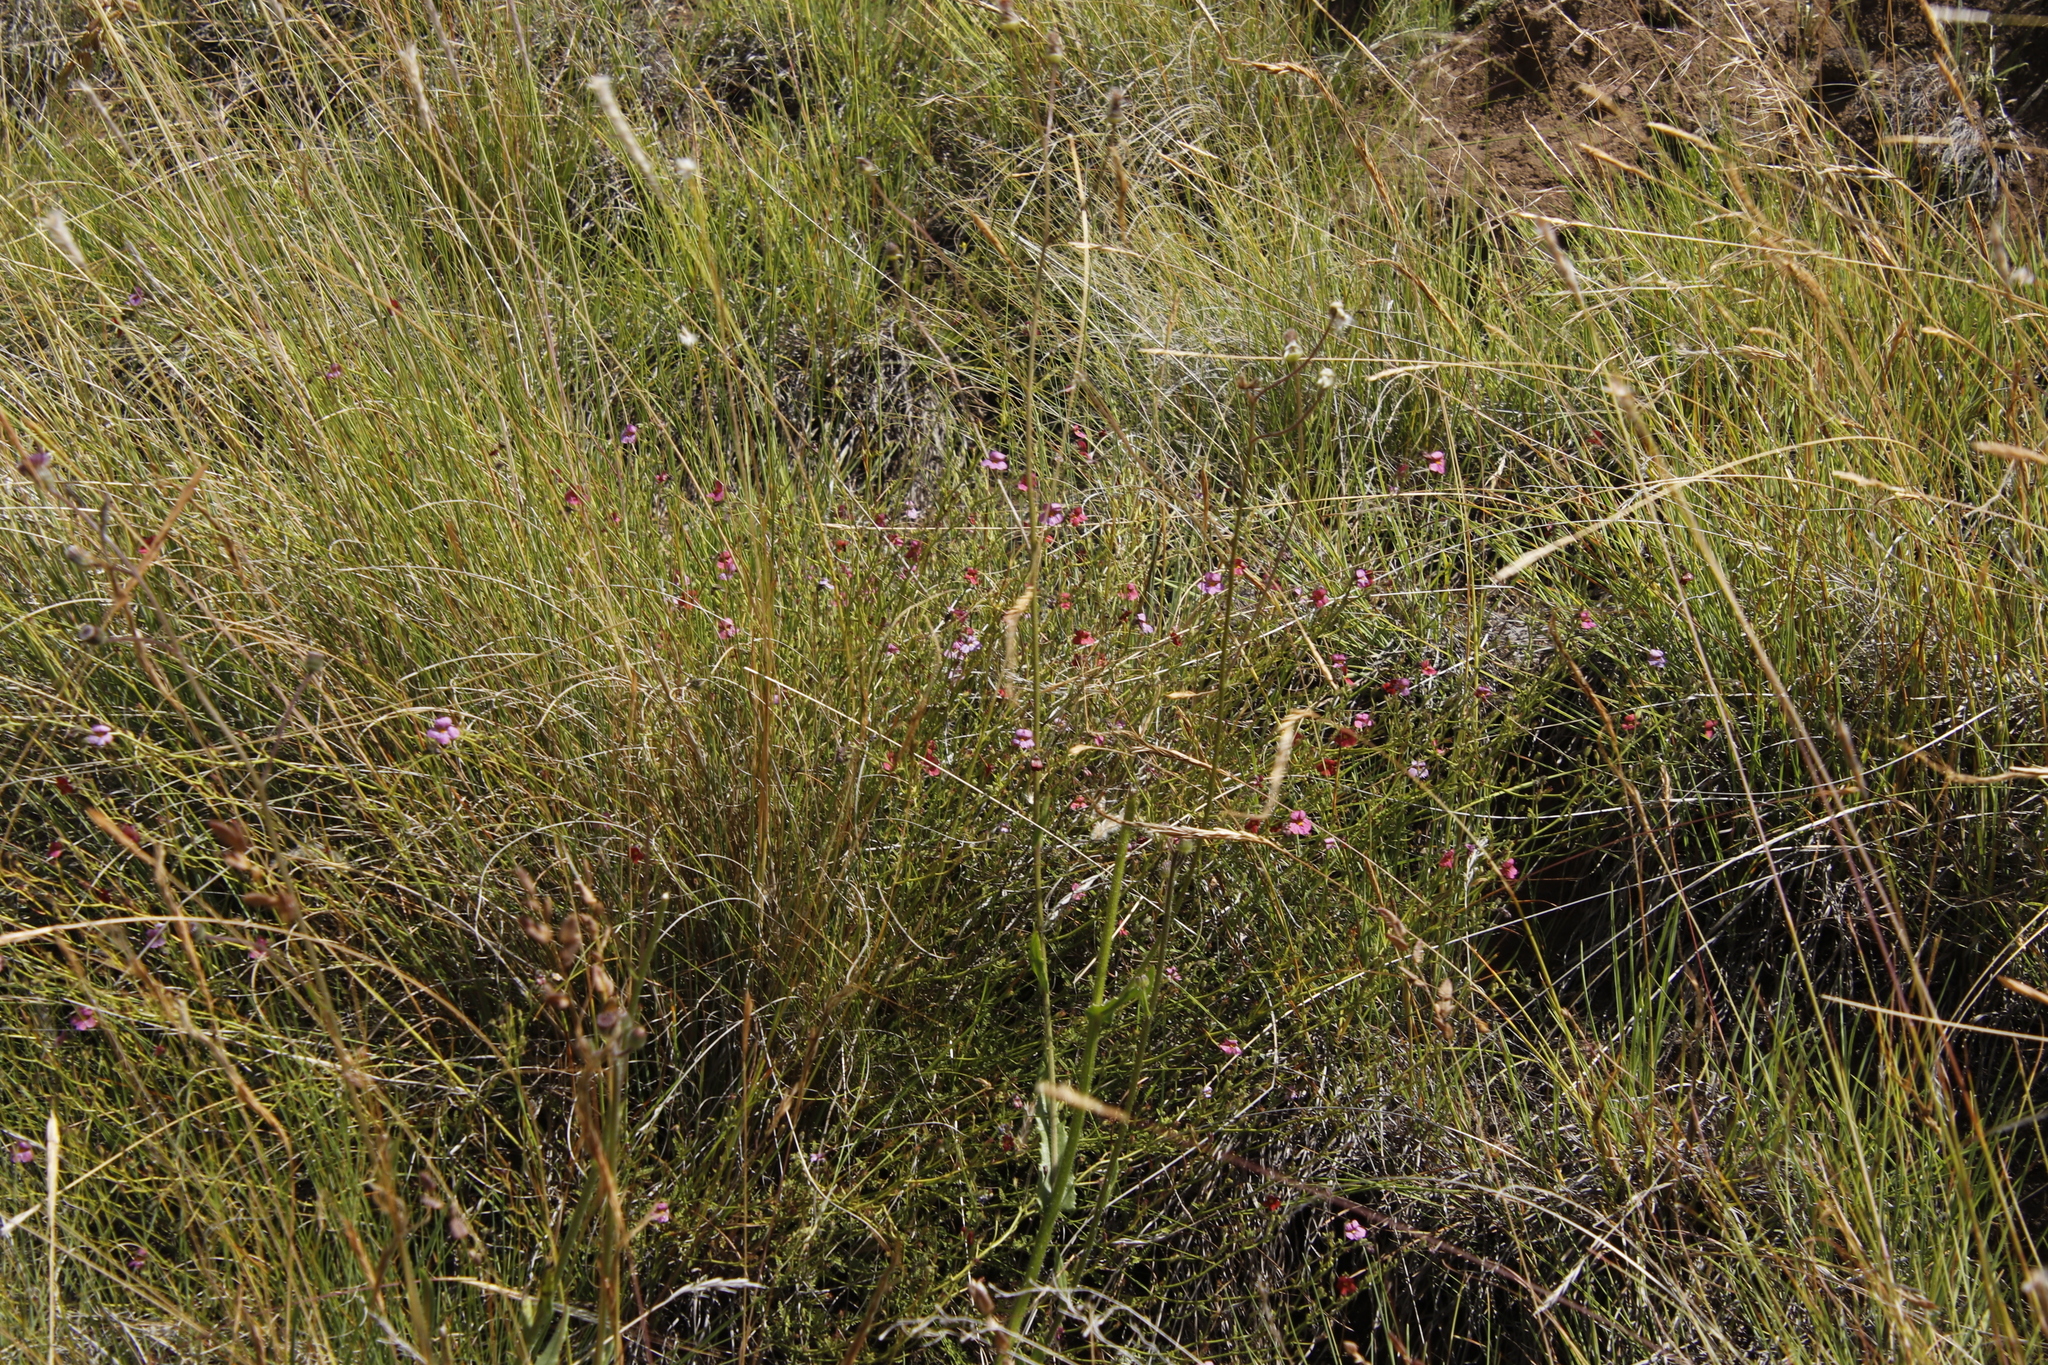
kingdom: Plantae
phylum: Tracheophyta
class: Magnoliopsida
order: Lamiales
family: Scrophulariaceae
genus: Jamesbrittenia
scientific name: Jamesbrittenia breviflora
